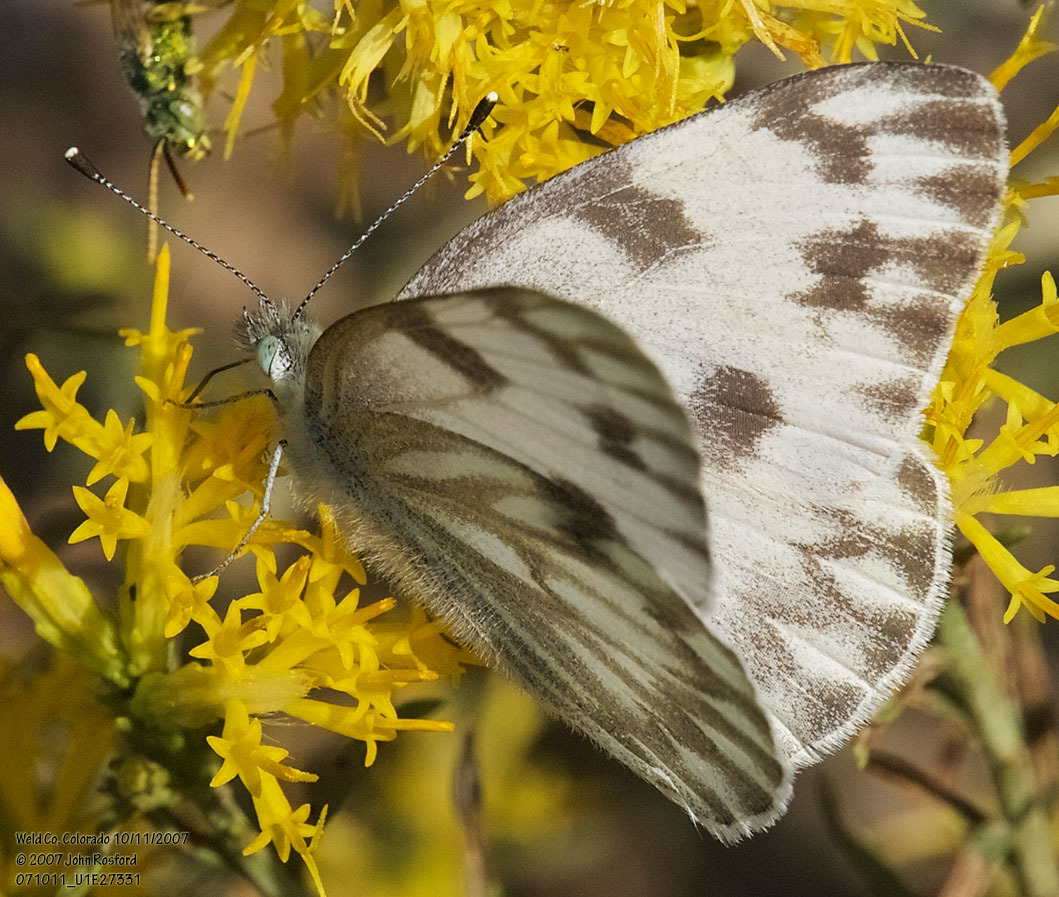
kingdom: Animalia
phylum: Arthropoda
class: Insecta
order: Lepidoptera
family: Pieridae
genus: Pontia
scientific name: Pontia protodice
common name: Checkered white
